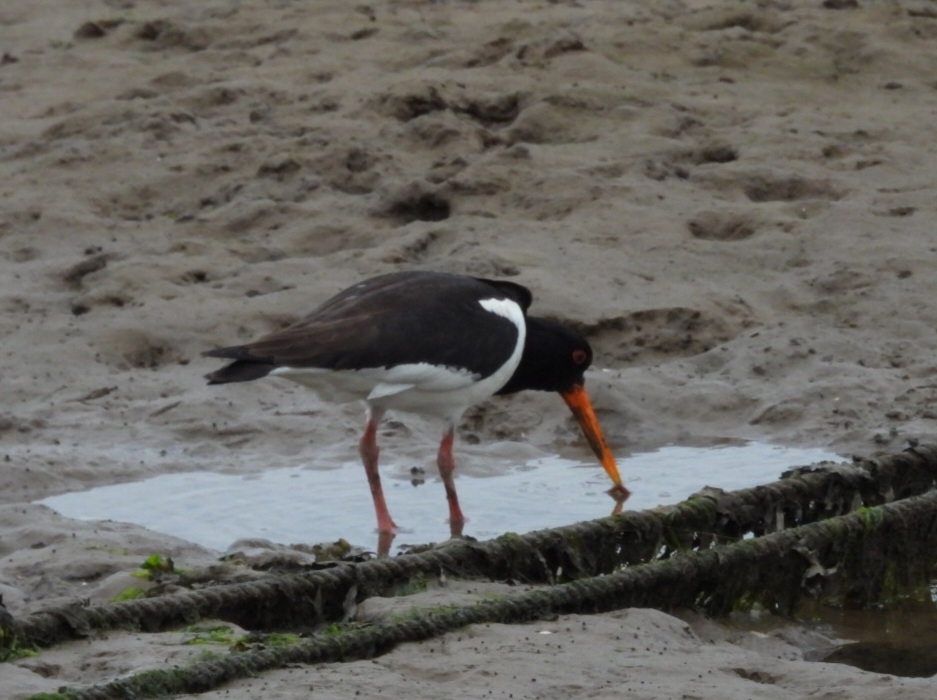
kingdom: Animalia
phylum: Chordata
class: Aves
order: Charadriiformes
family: Haematopodidae
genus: Haematopus
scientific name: Haematopus ostralegus
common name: Eurasian oystercatcher
